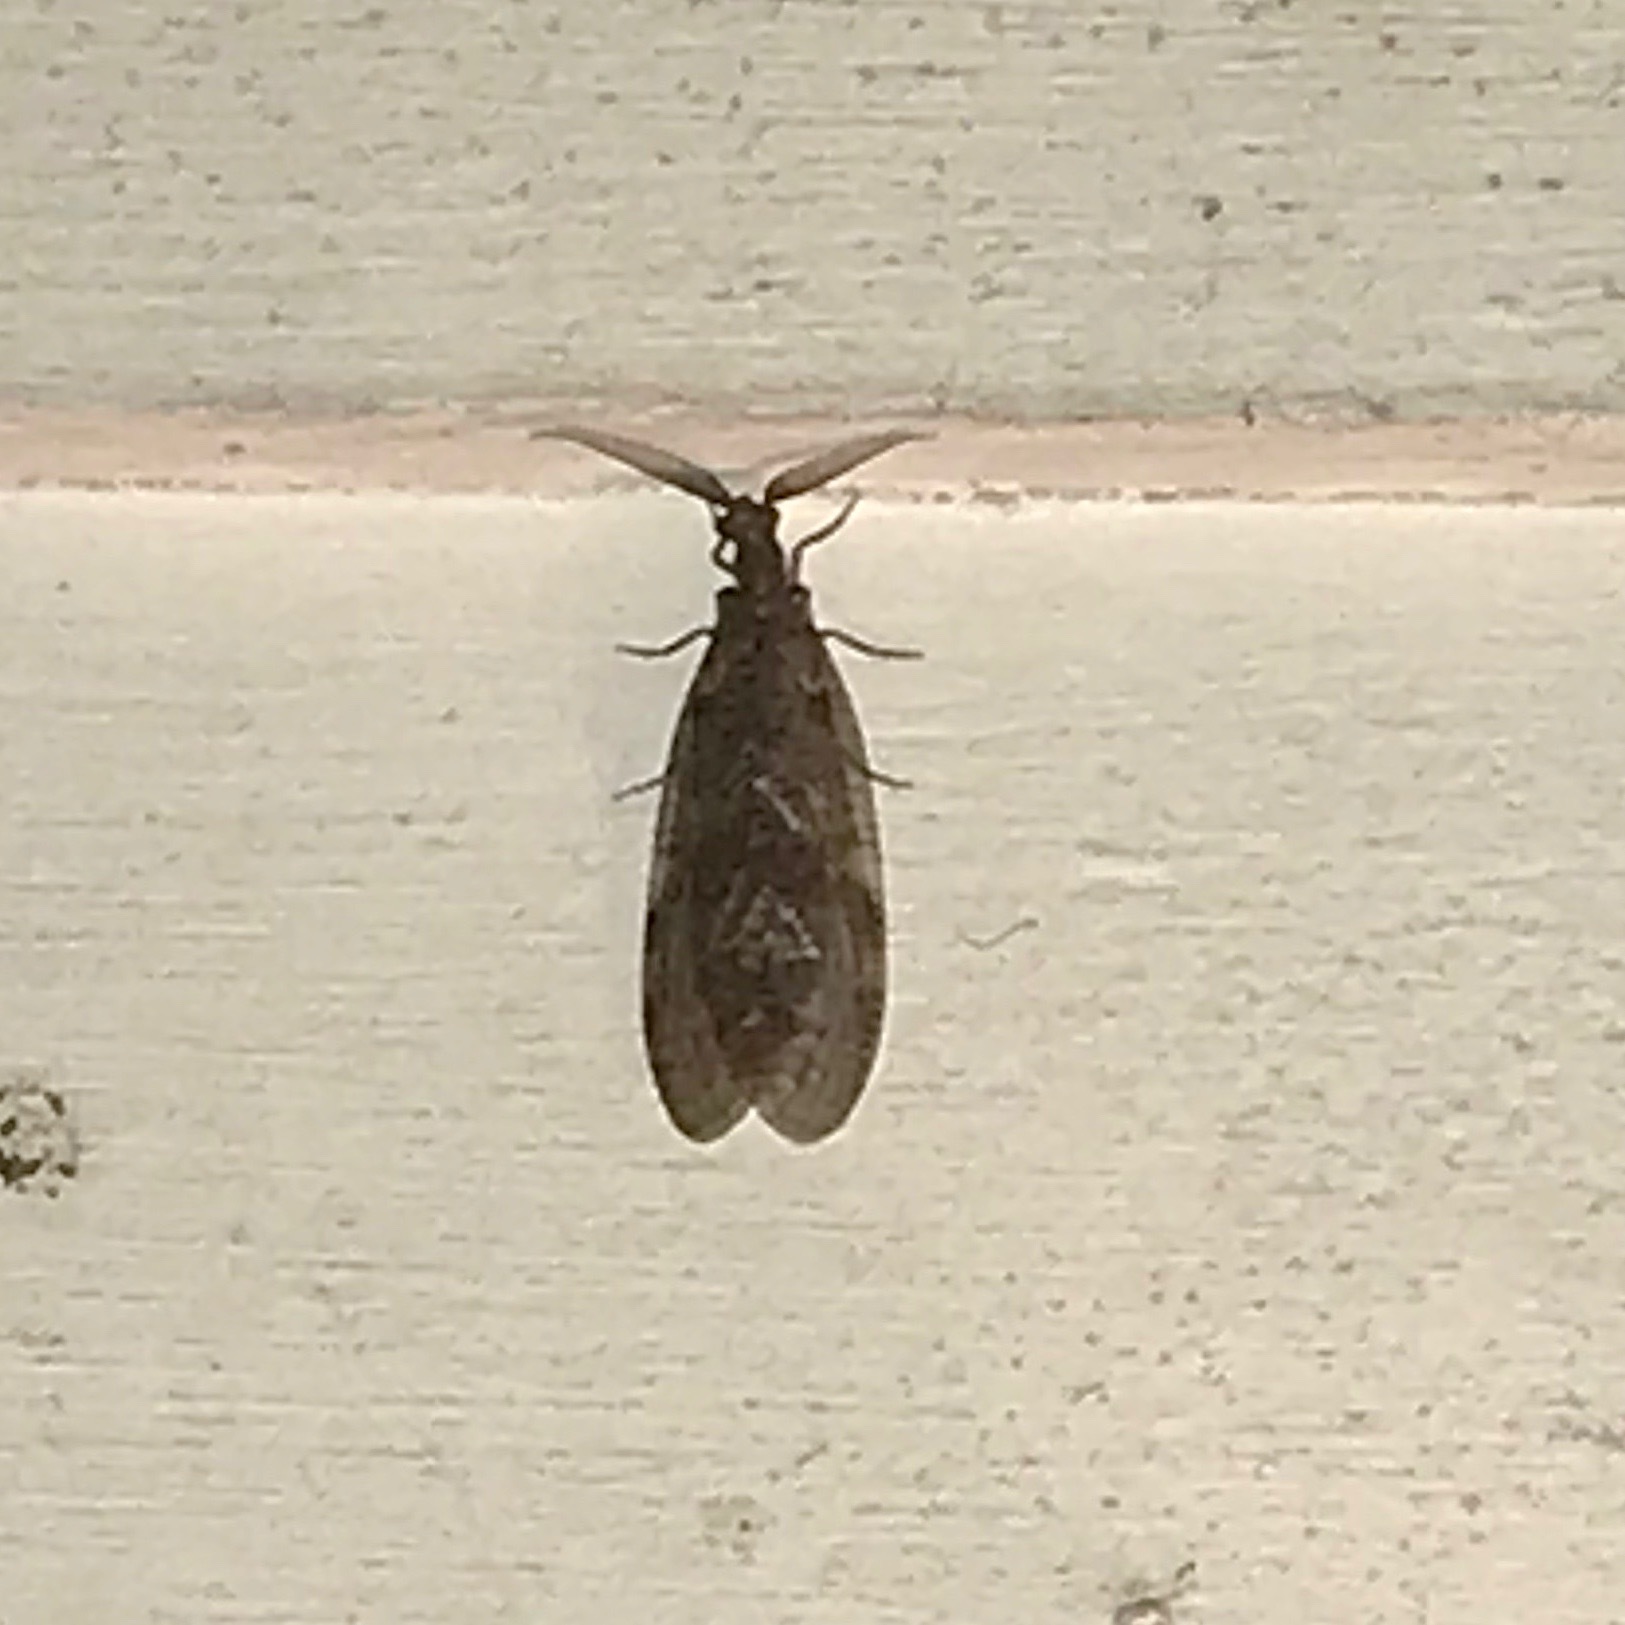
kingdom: Animalia
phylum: Arthropoda
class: Insecta
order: Megaloptera
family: Corydalidae
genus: Chauliodes
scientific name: Chauliodes
